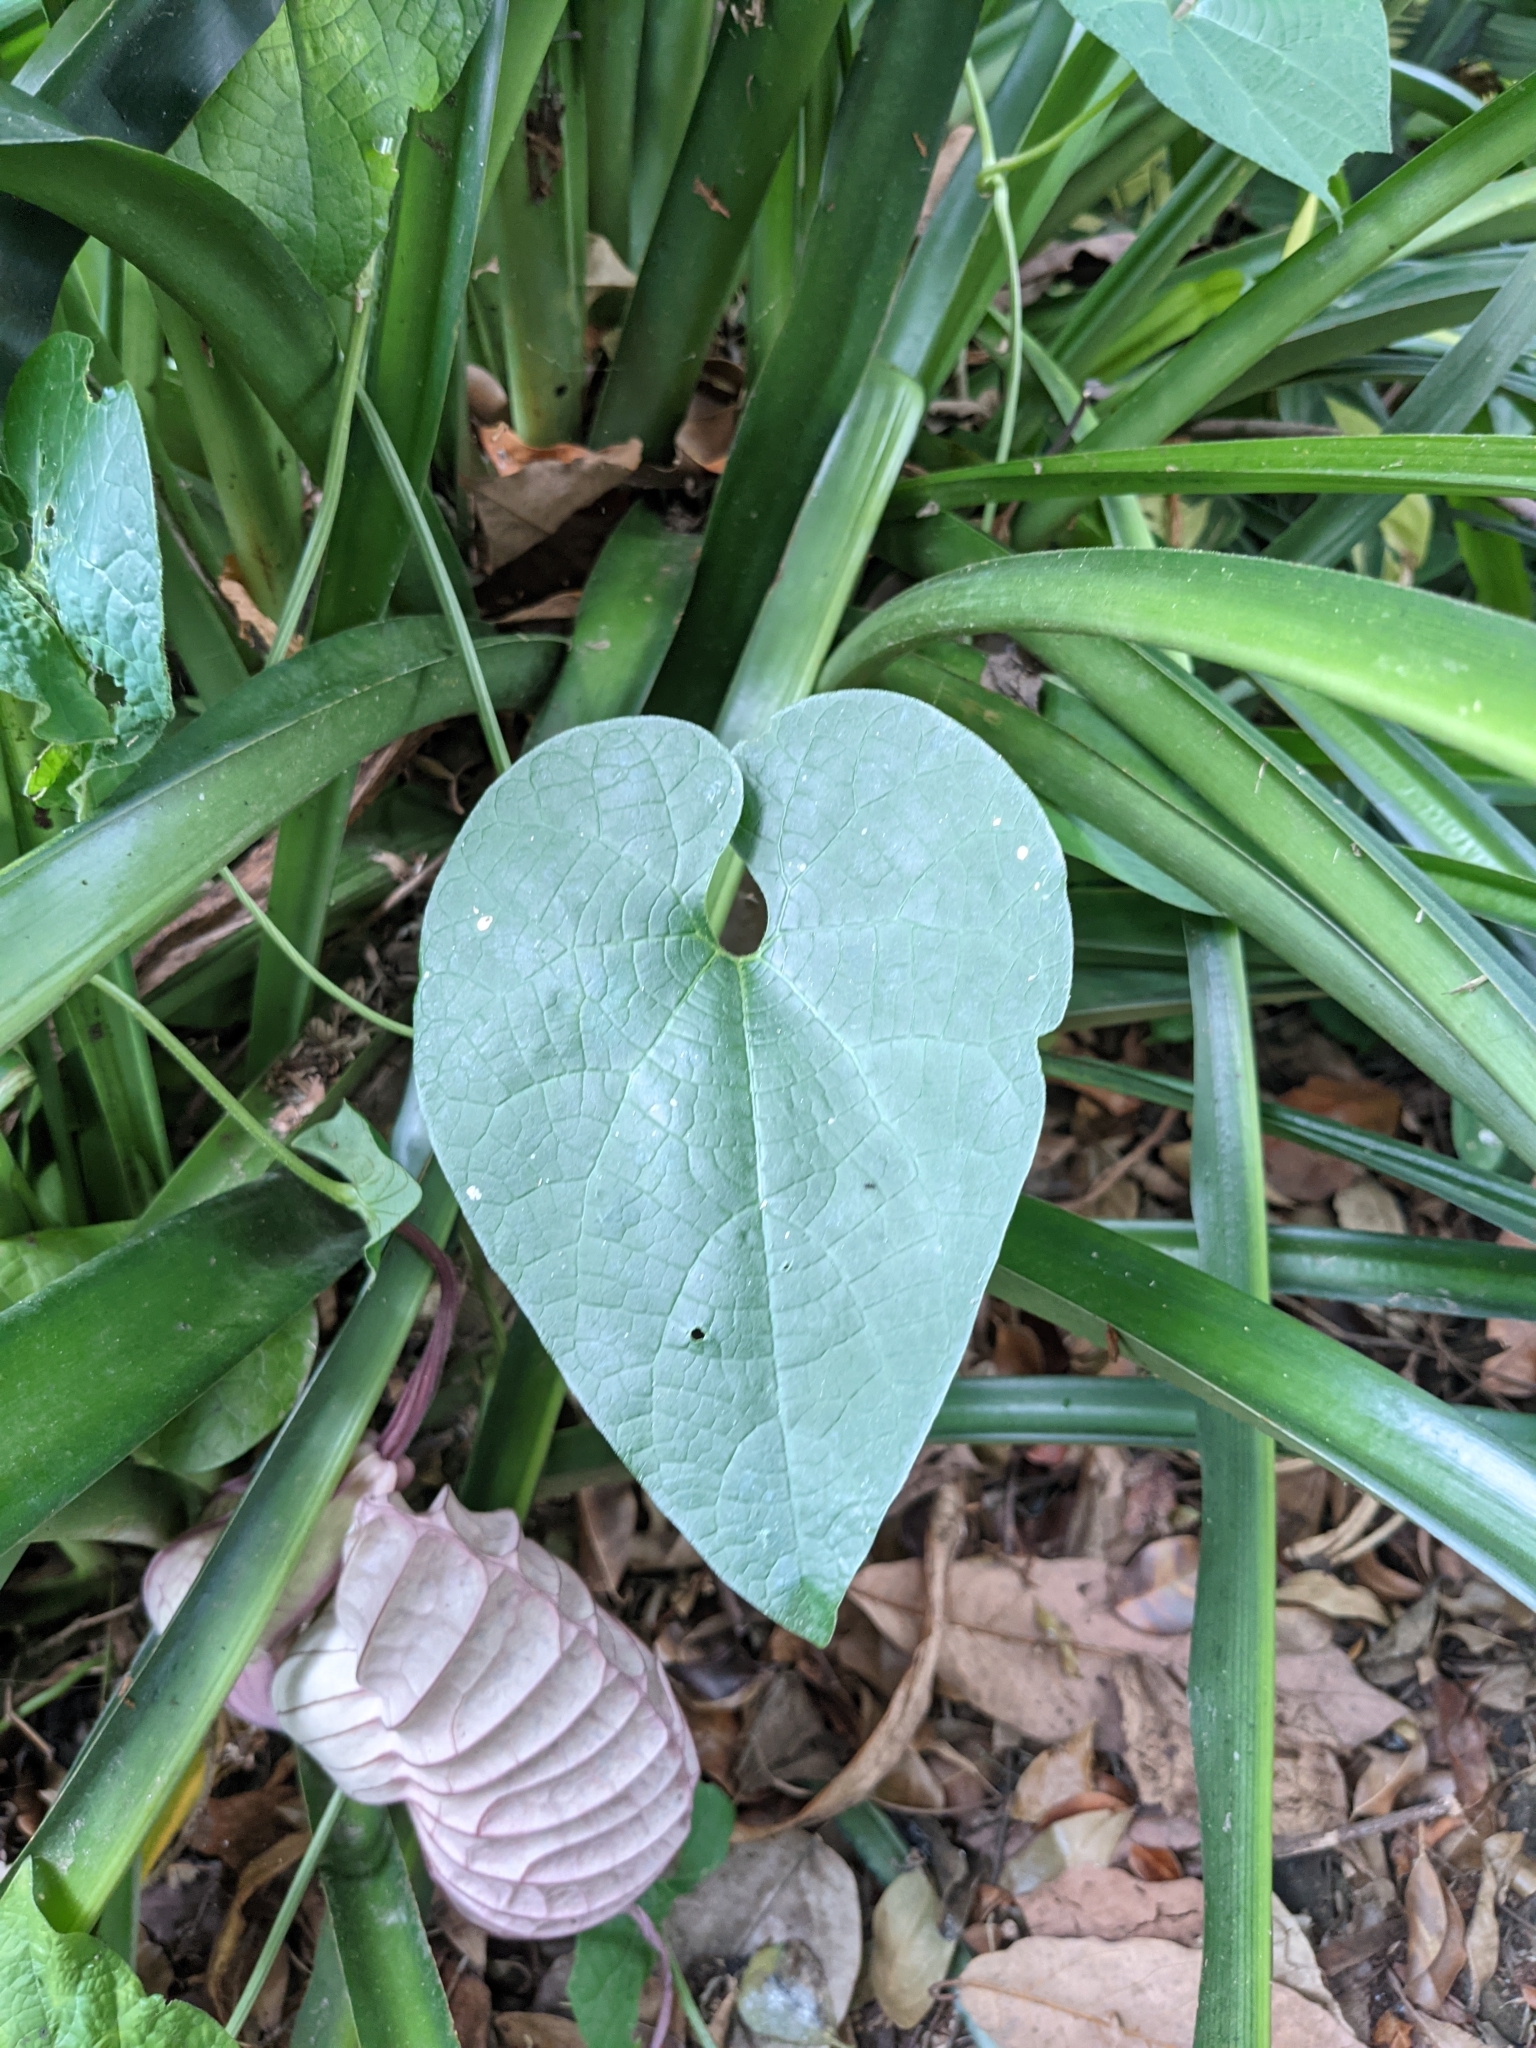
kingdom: Plantae
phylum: Tracheophyta
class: Magnoliopsida
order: Piperales
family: Aristolochiaceae
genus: Aristolochia
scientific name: Aristolochia grandiflora
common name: Pelicanflower
